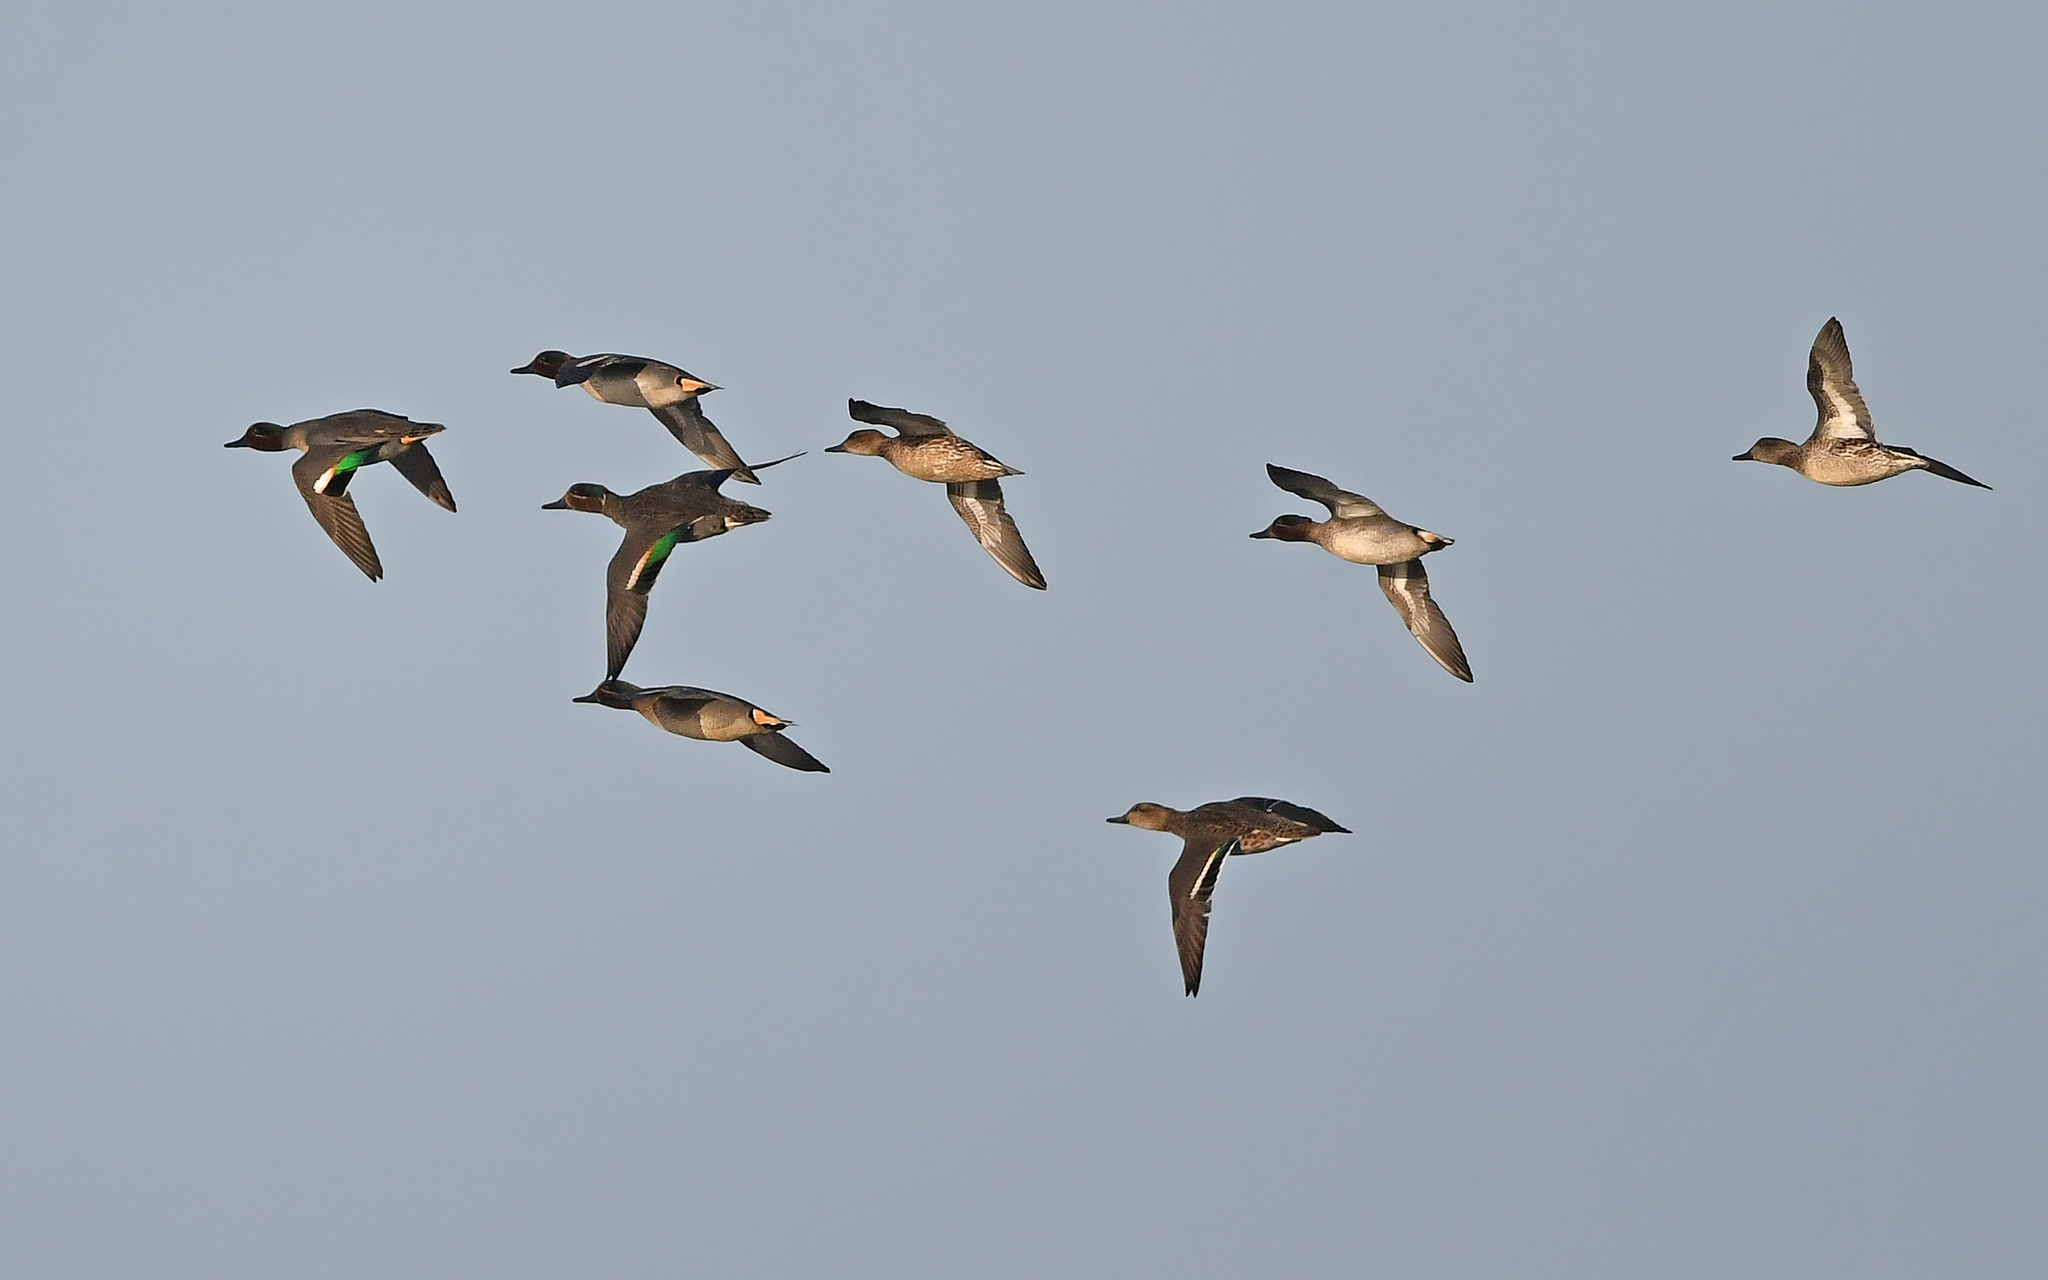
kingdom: Animalia
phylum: Chordata
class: Aves
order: Anseriformes
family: Anatidae
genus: Anas
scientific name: Anas crecca
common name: Eurasian teal
